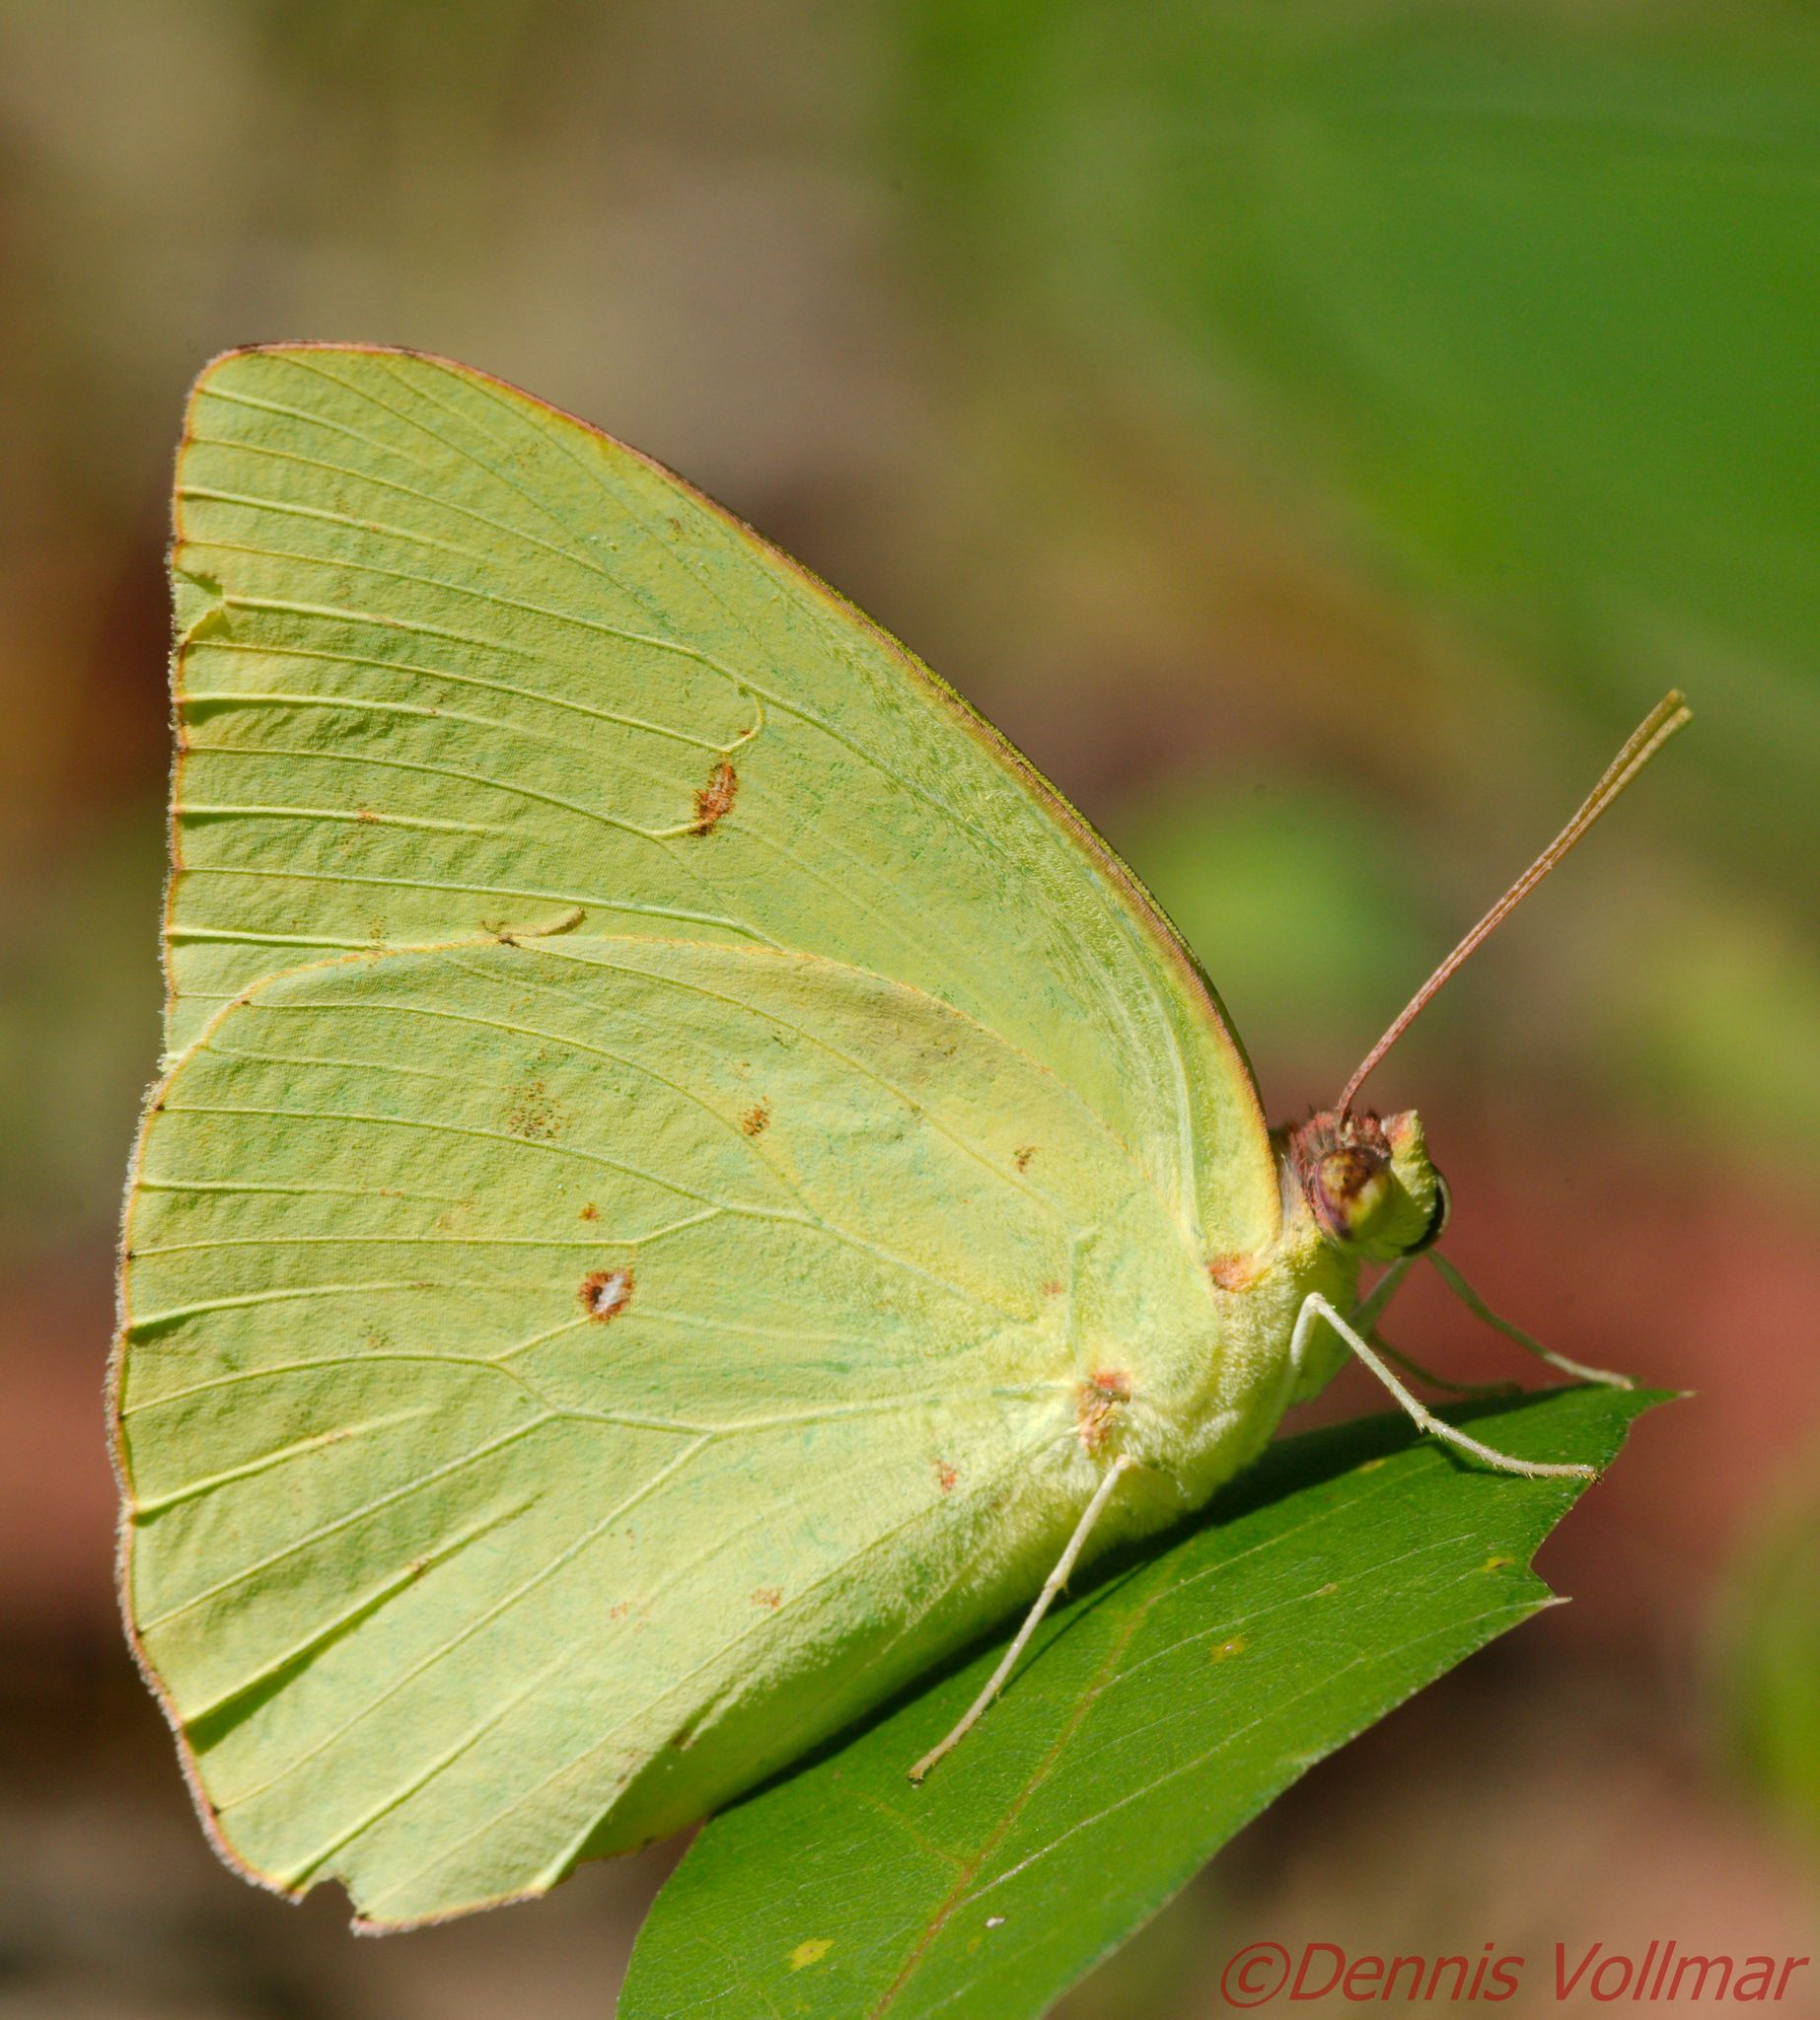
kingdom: Animalia
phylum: Arthropoda
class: Insecta
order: Lepidoptera
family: Pieridae
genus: Phoebis
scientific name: Phoebis sennae
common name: Cloudless sulphur
